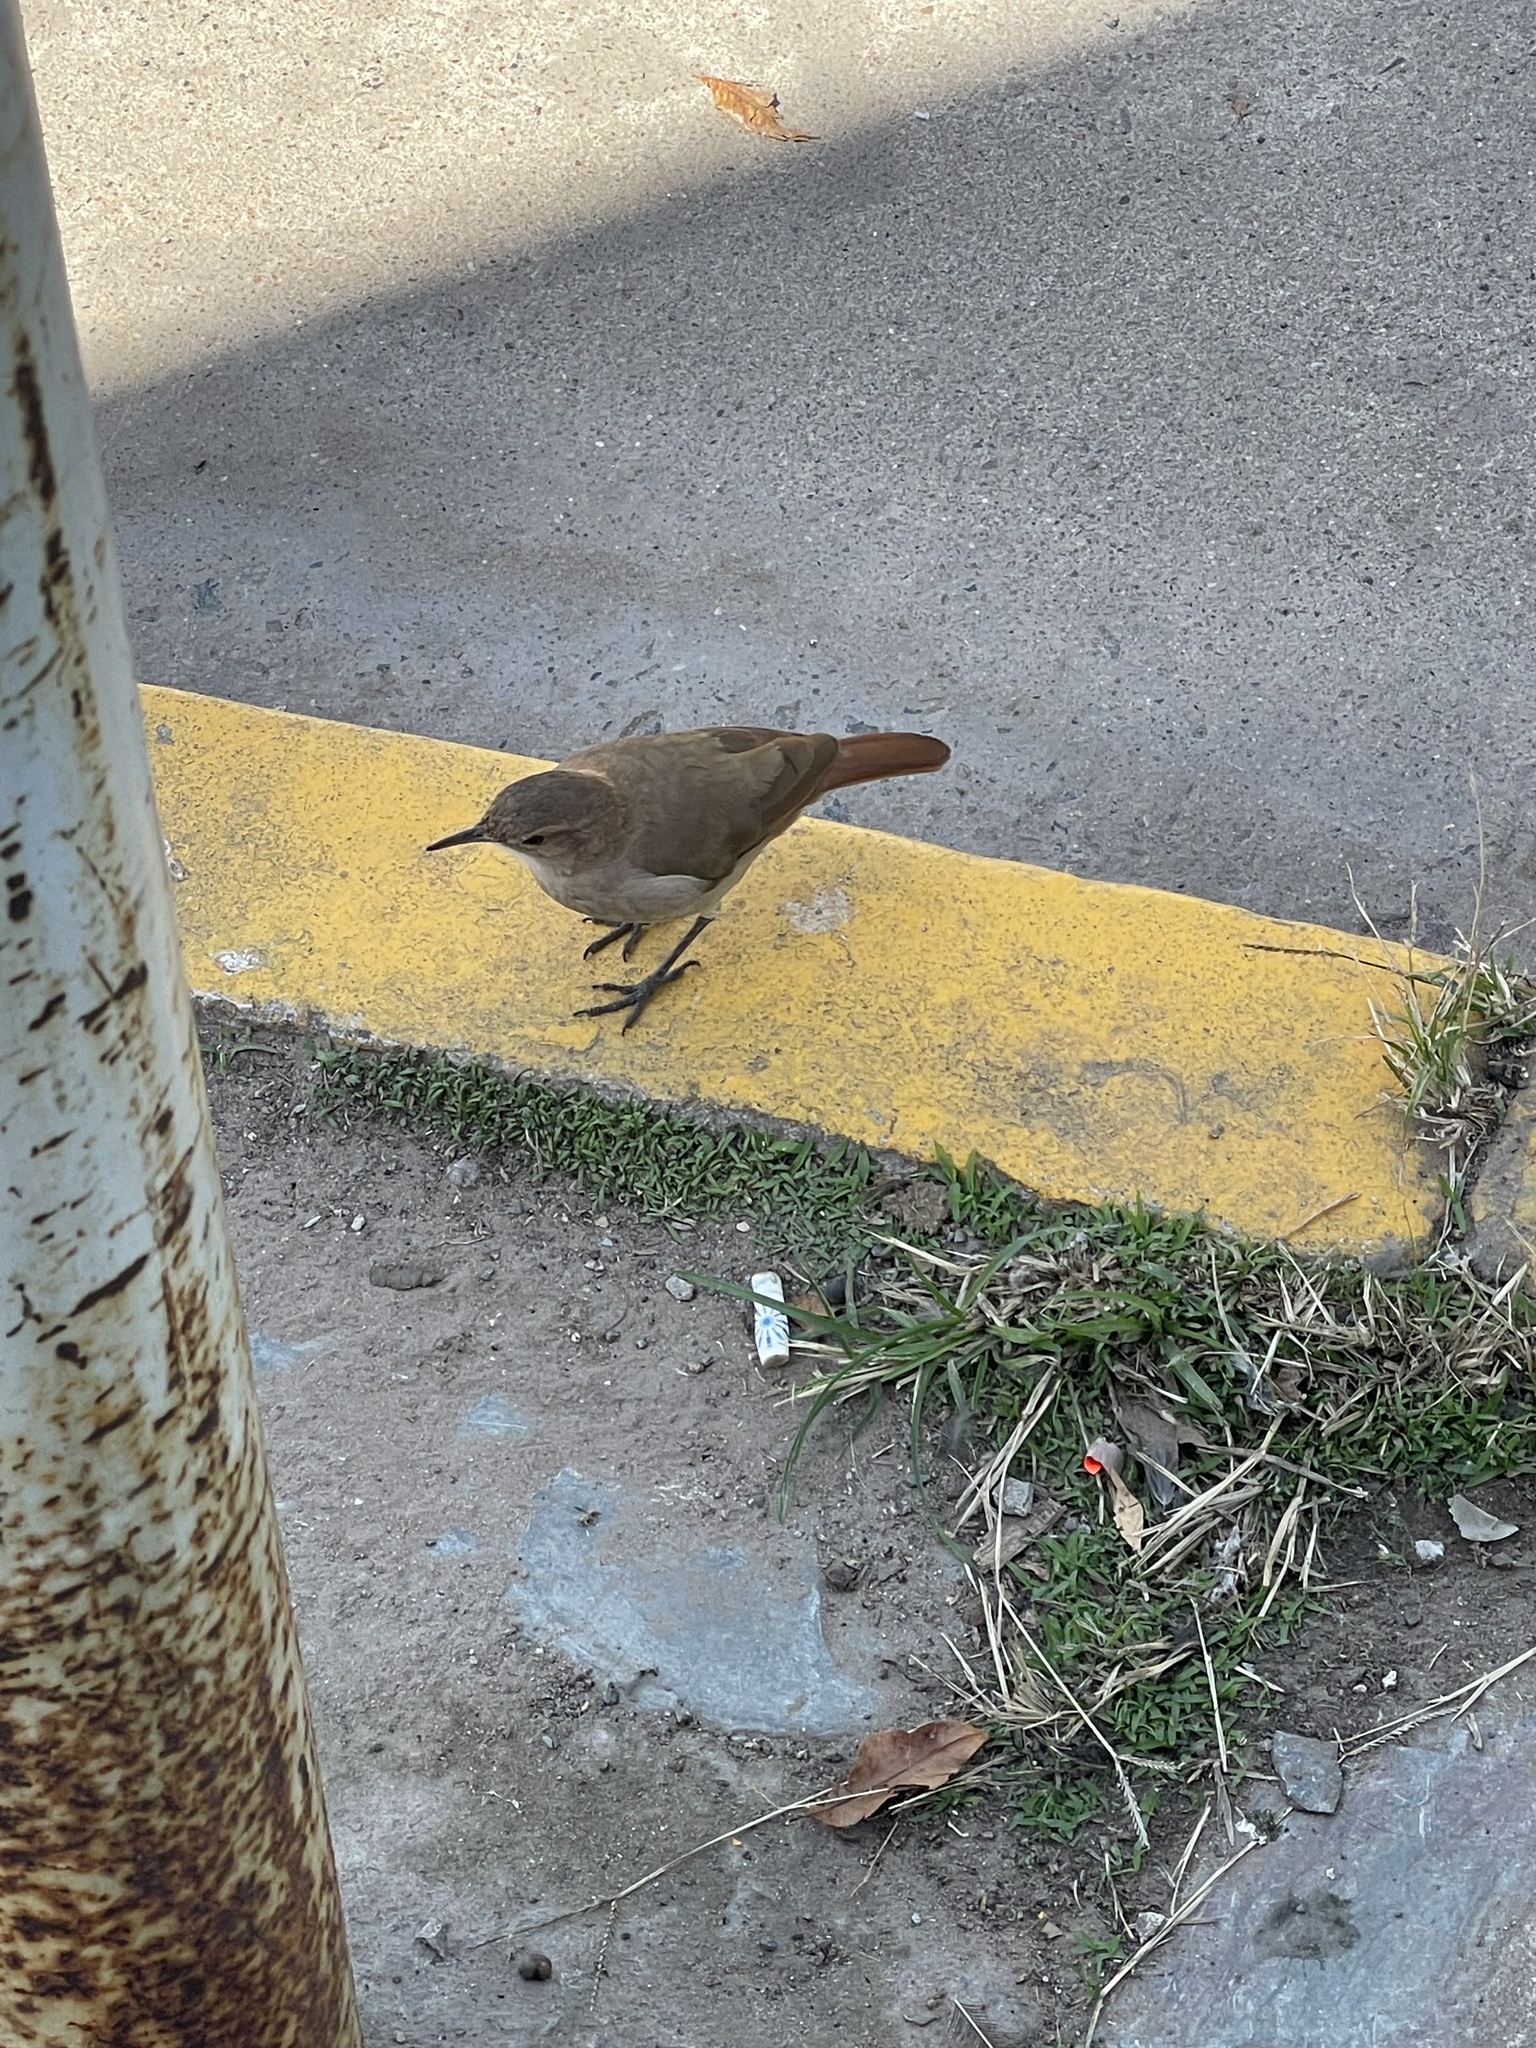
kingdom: Animalia
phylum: Chordata
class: Aves
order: Passeriformes
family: Furnariidae
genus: Furnarius
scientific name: Furnarius rufus
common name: Rufous hornero
